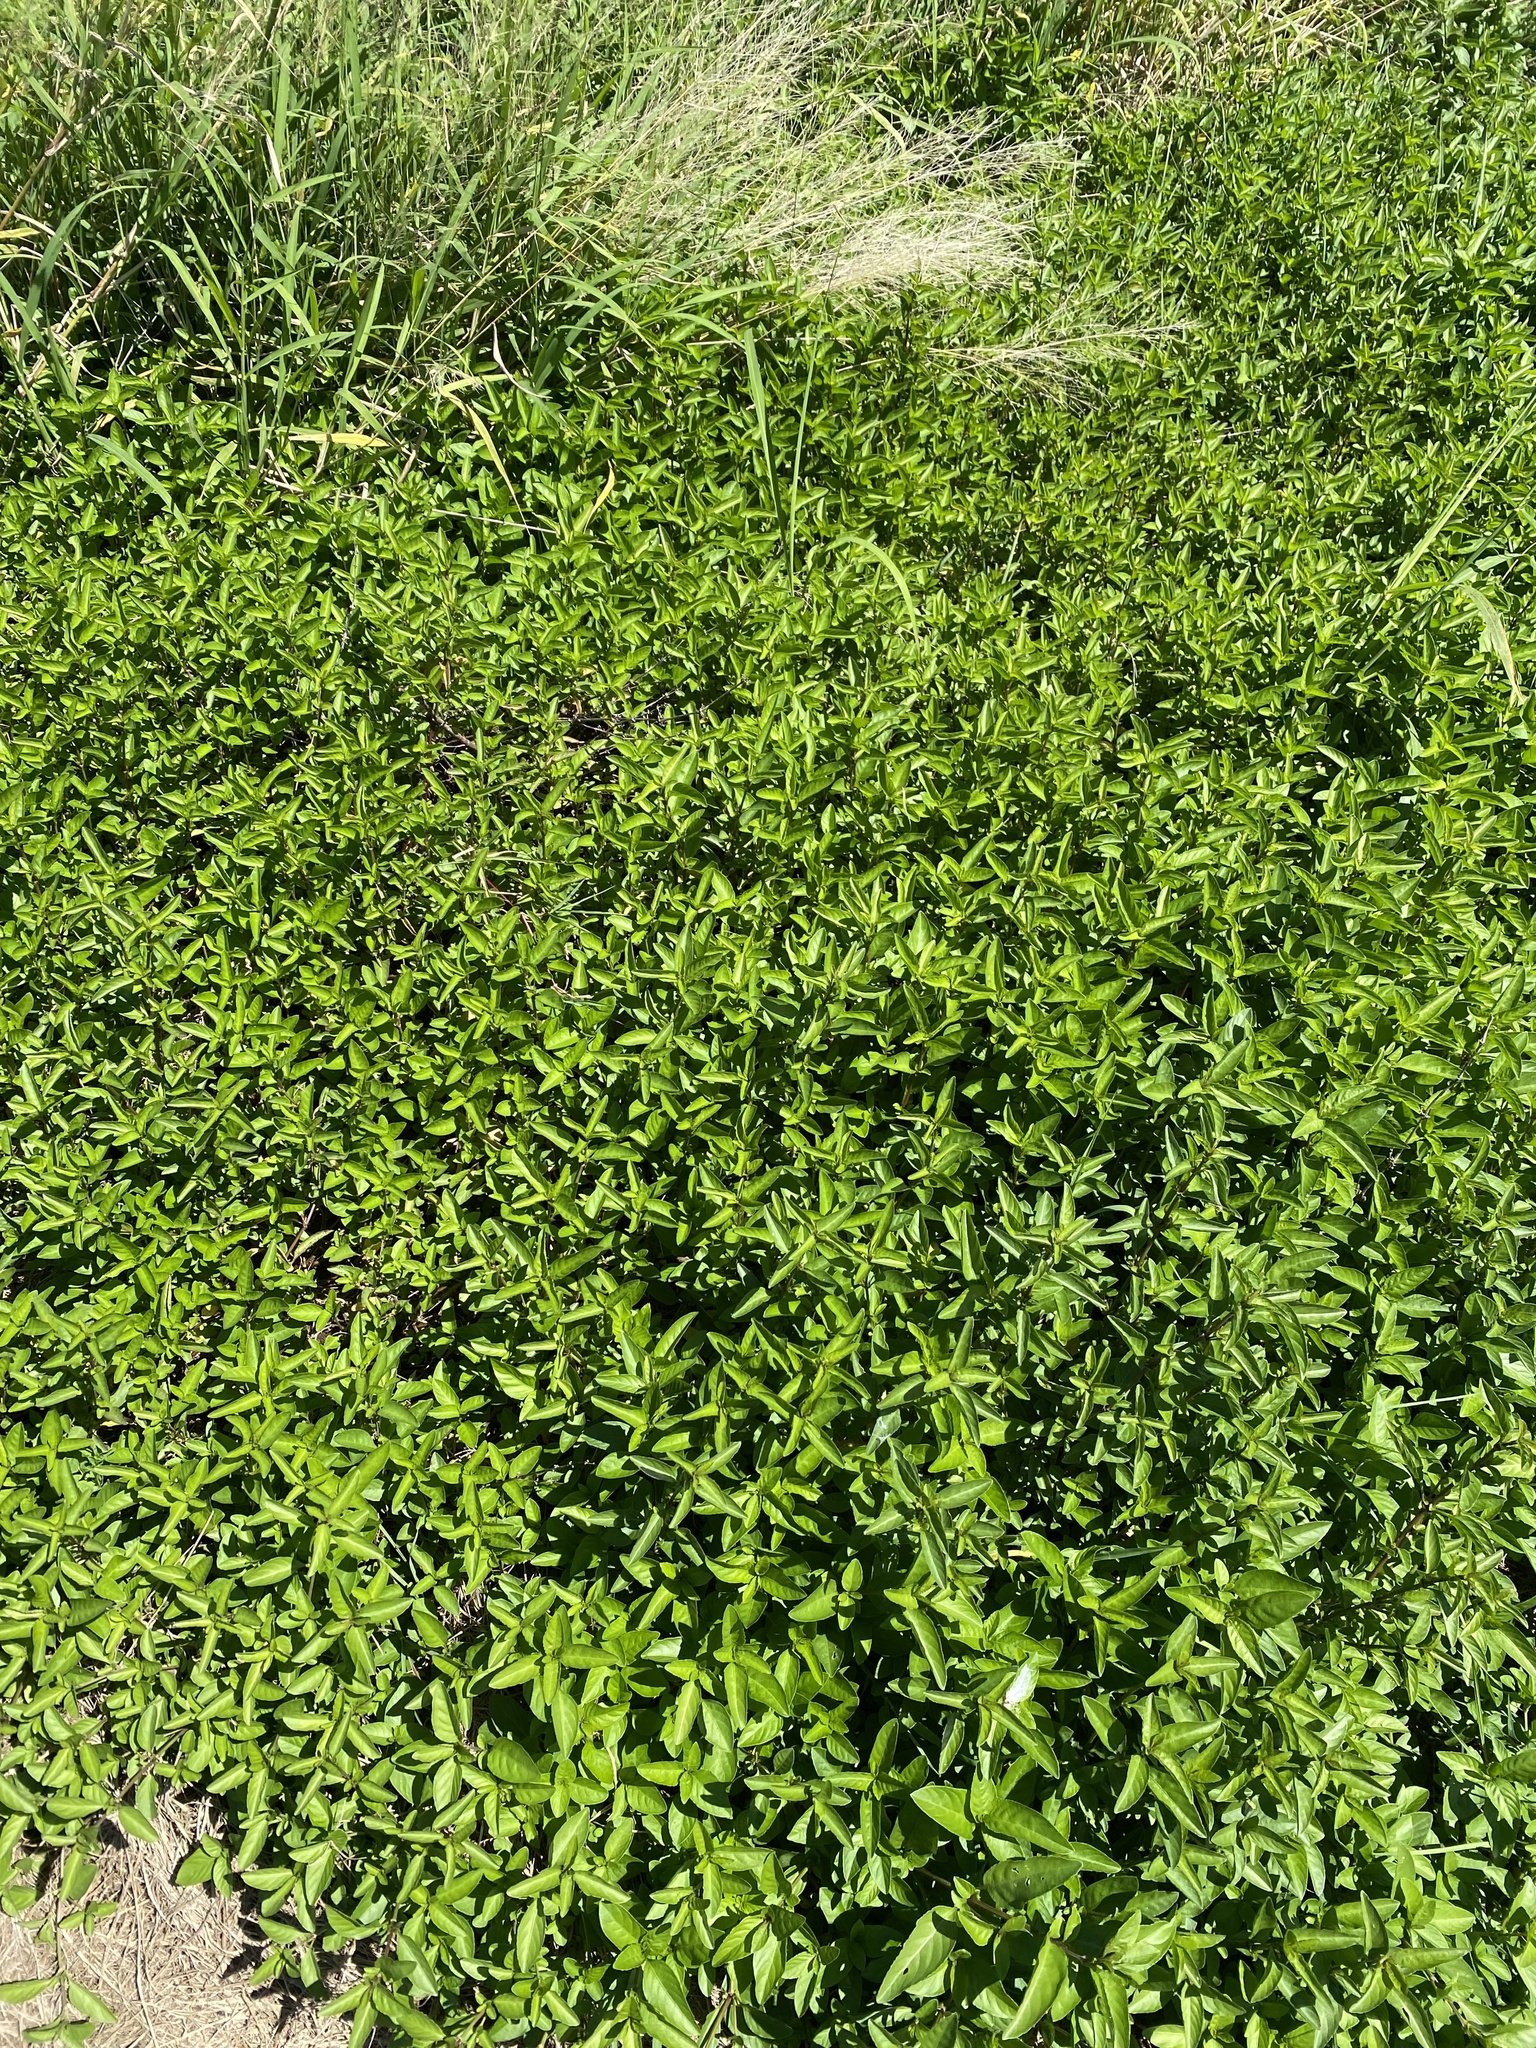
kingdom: Plantae
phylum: Tracheophyta
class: Magnoliopsida
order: Lamiales
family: Acanthaceae
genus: Hygrophila
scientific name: Hygrophila erecta
